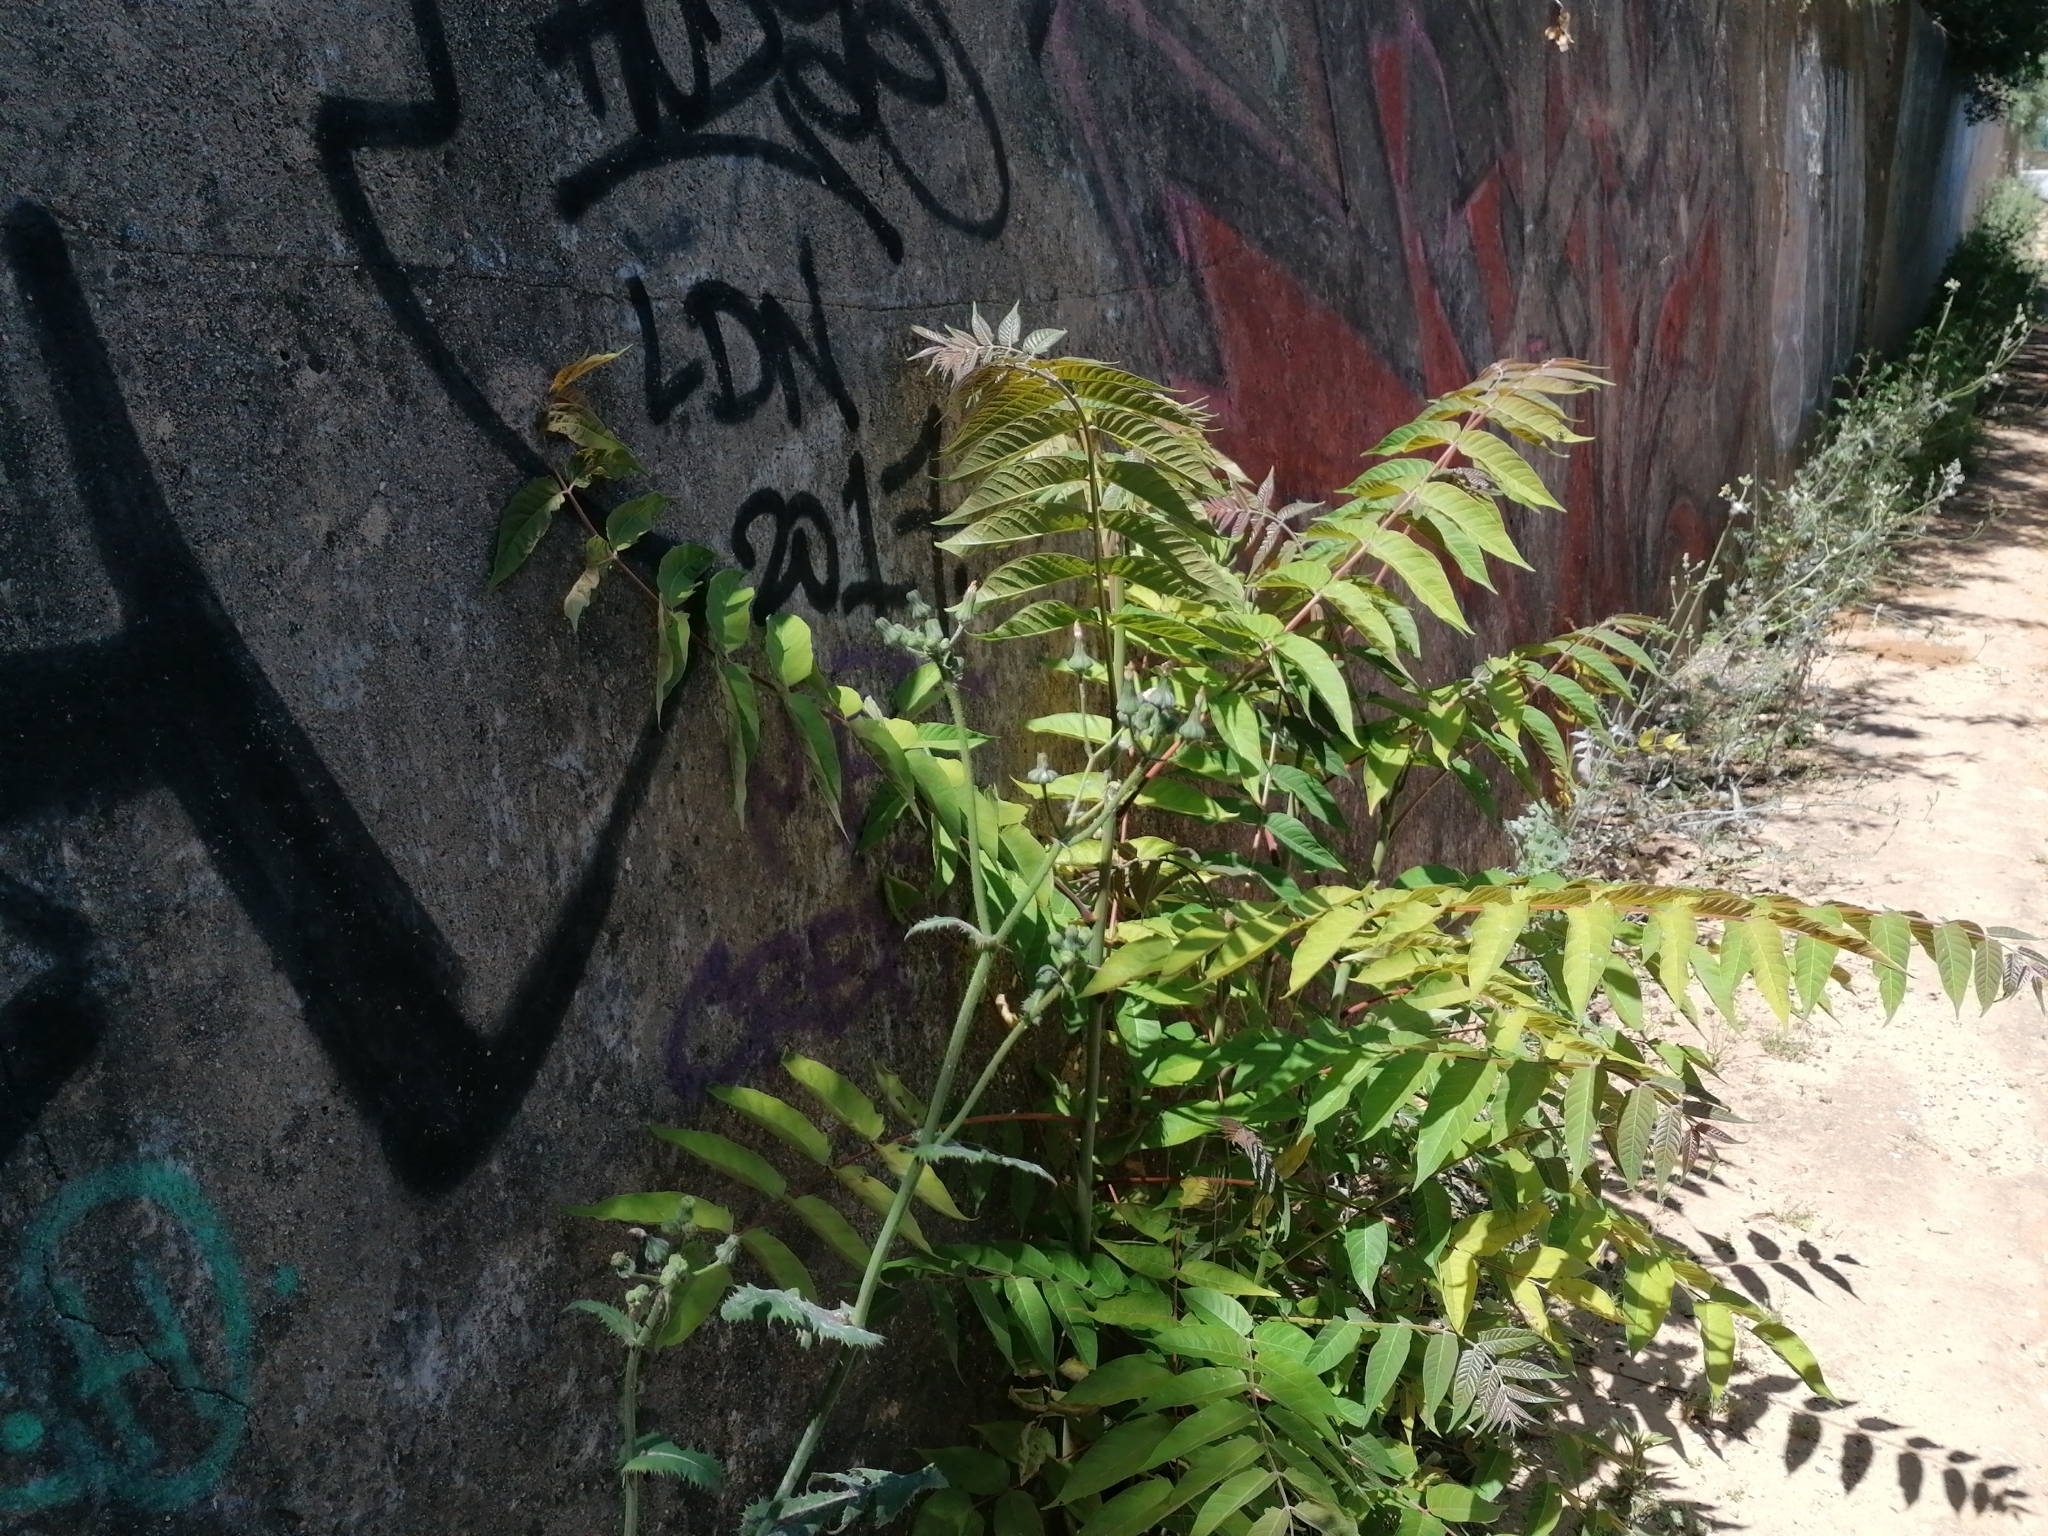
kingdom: Plantae
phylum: Tracheophyta
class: Magnoliopsida
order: Sapindales
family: Simaroubaceae
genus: Ailanthus
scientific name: Ailanthus altissima
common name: Tree-of-heaven
